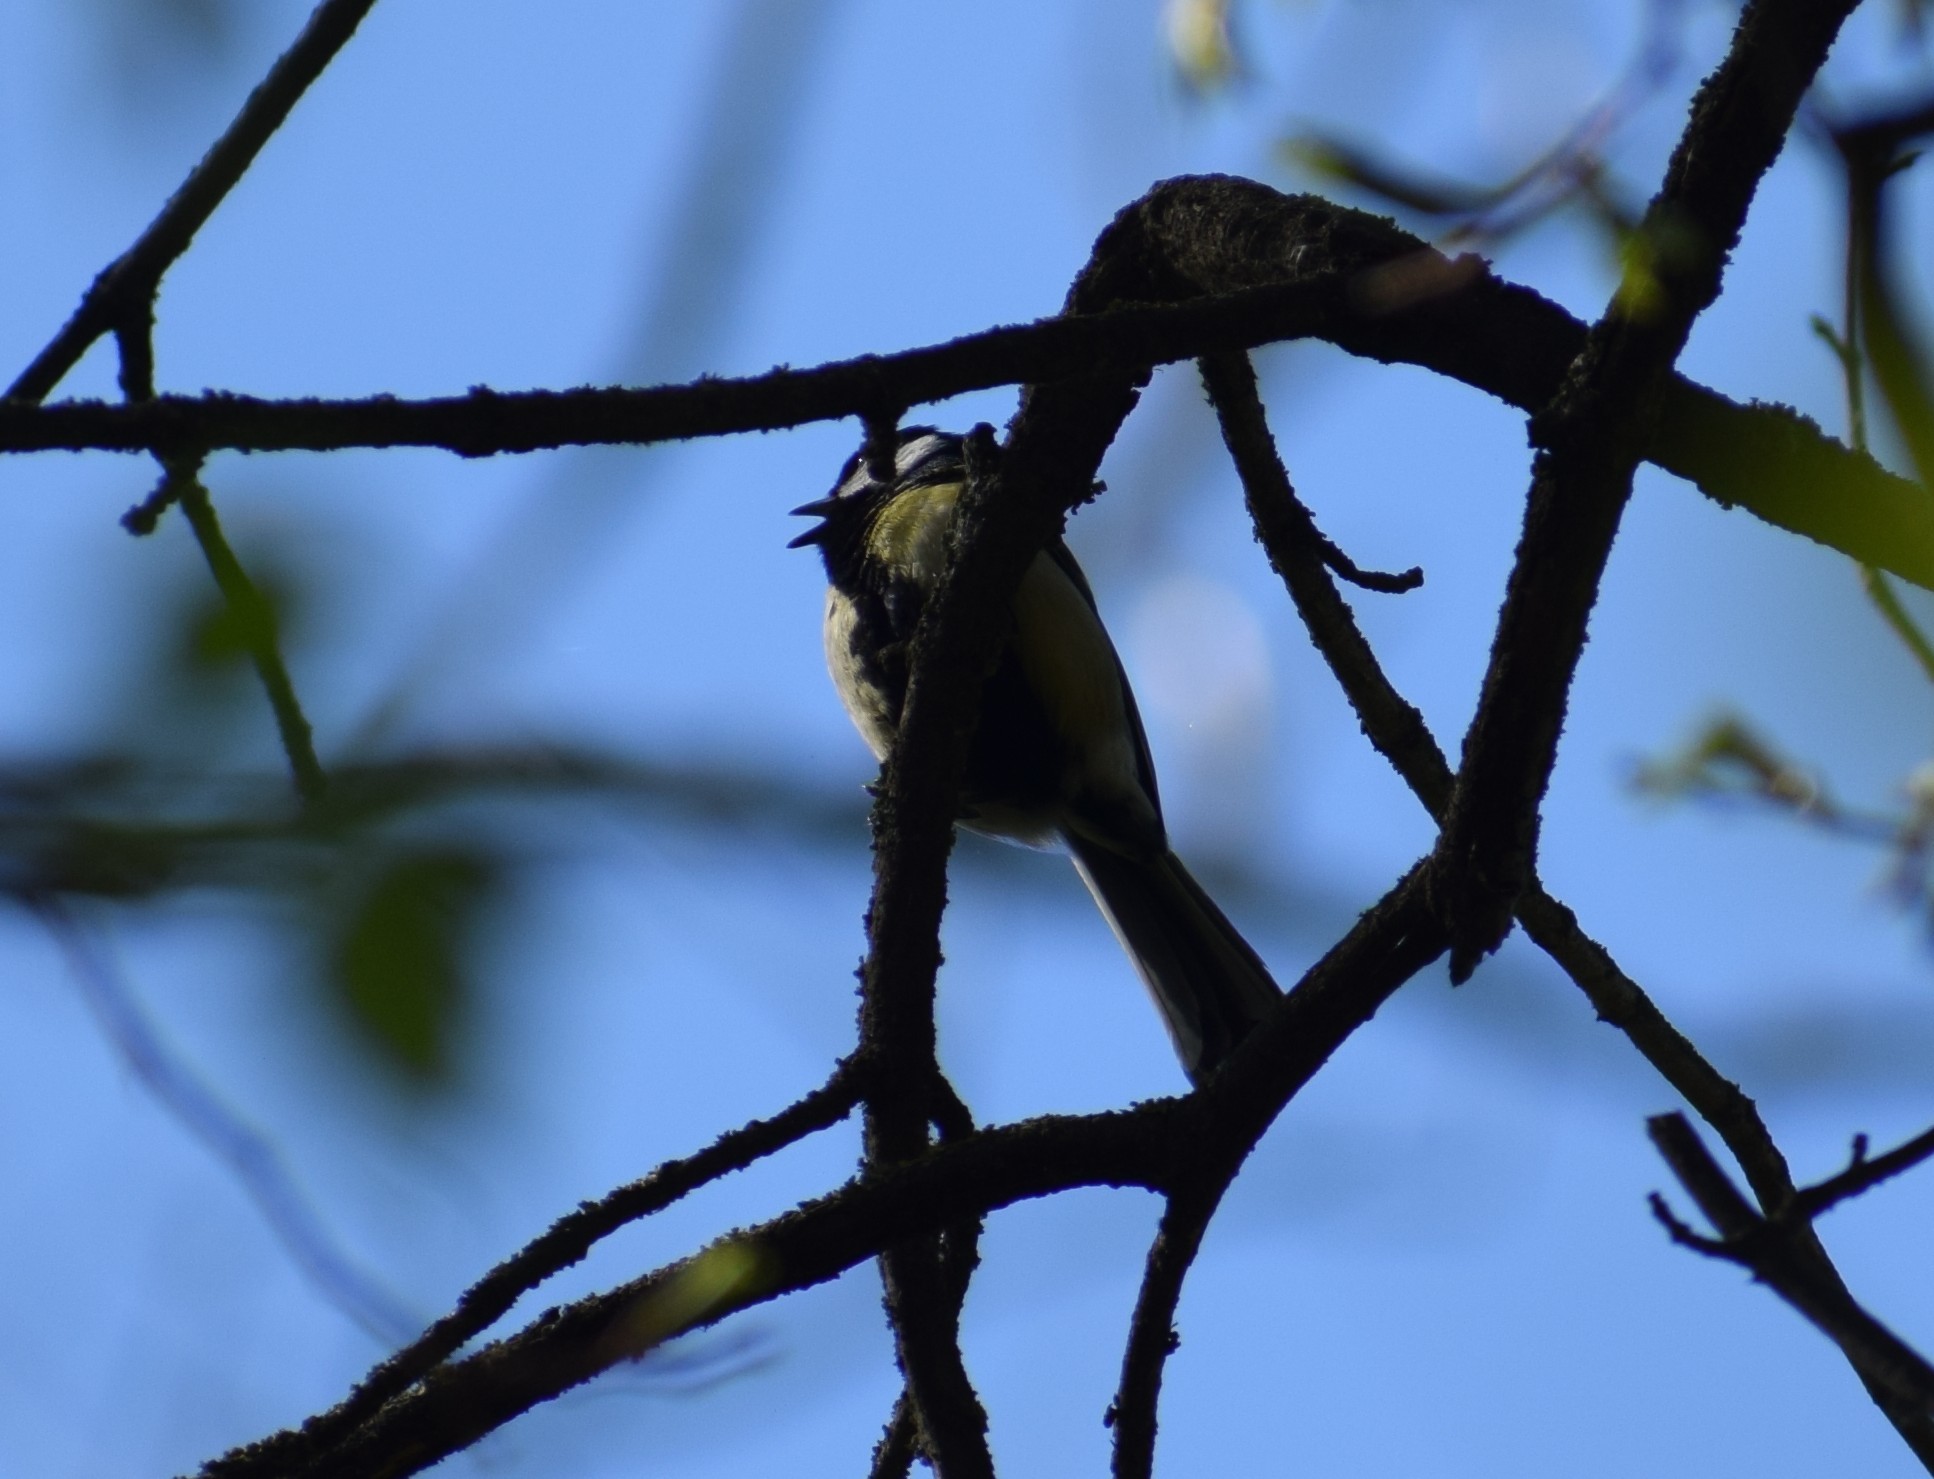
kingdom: Animalia
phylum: Chordata
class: Aves
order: Passeriformes
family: Paridae
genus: Parus
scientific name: Parus major
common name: Great tit
